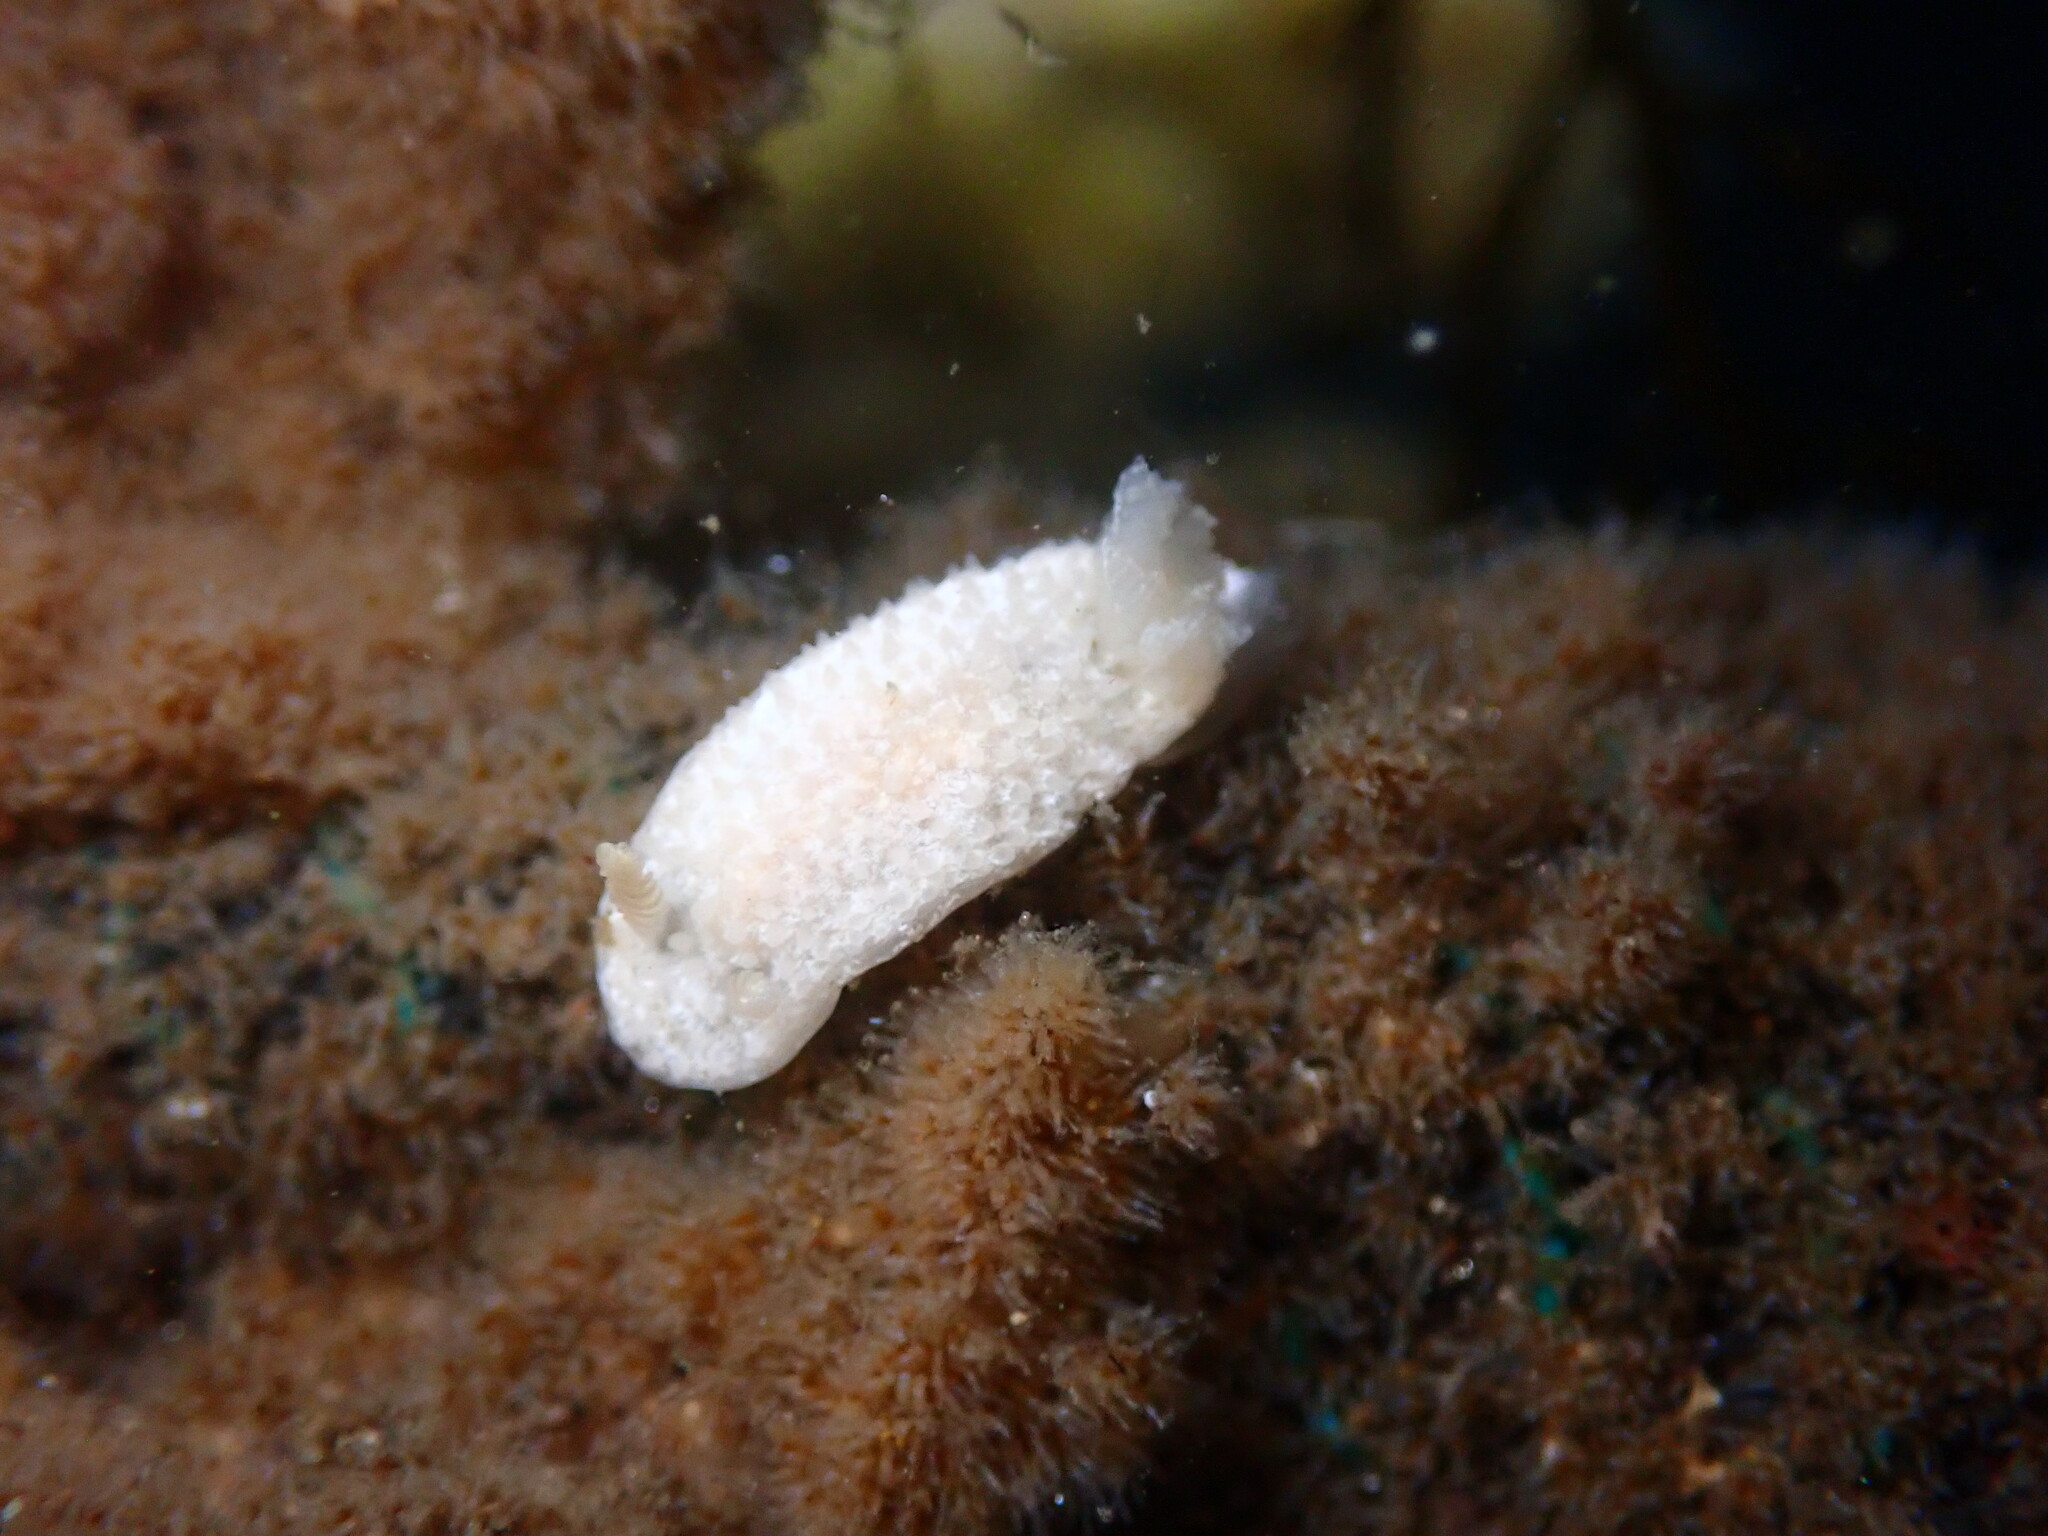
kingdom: Animalia
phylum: Mollusca
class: Gastropoda
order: Nudibranchia
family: Calycidorididae
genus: Diaphorodoris
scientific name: Diaphorodoris lirulatocauda
